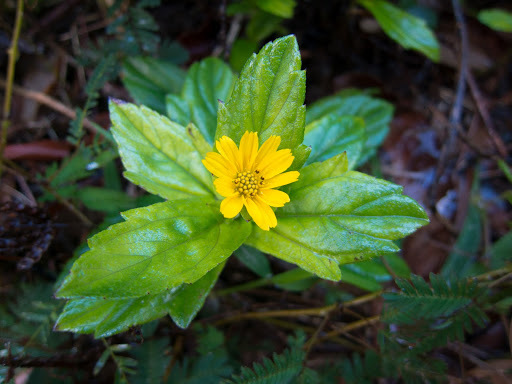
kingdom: Plantae
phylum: Tracheophyta
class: Magnoliopsida
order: Asterales
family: Asteraceae
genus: Sphagneticola
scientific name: Sphagneticola trilobata
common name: Bay biscayne creeping-oxeye
